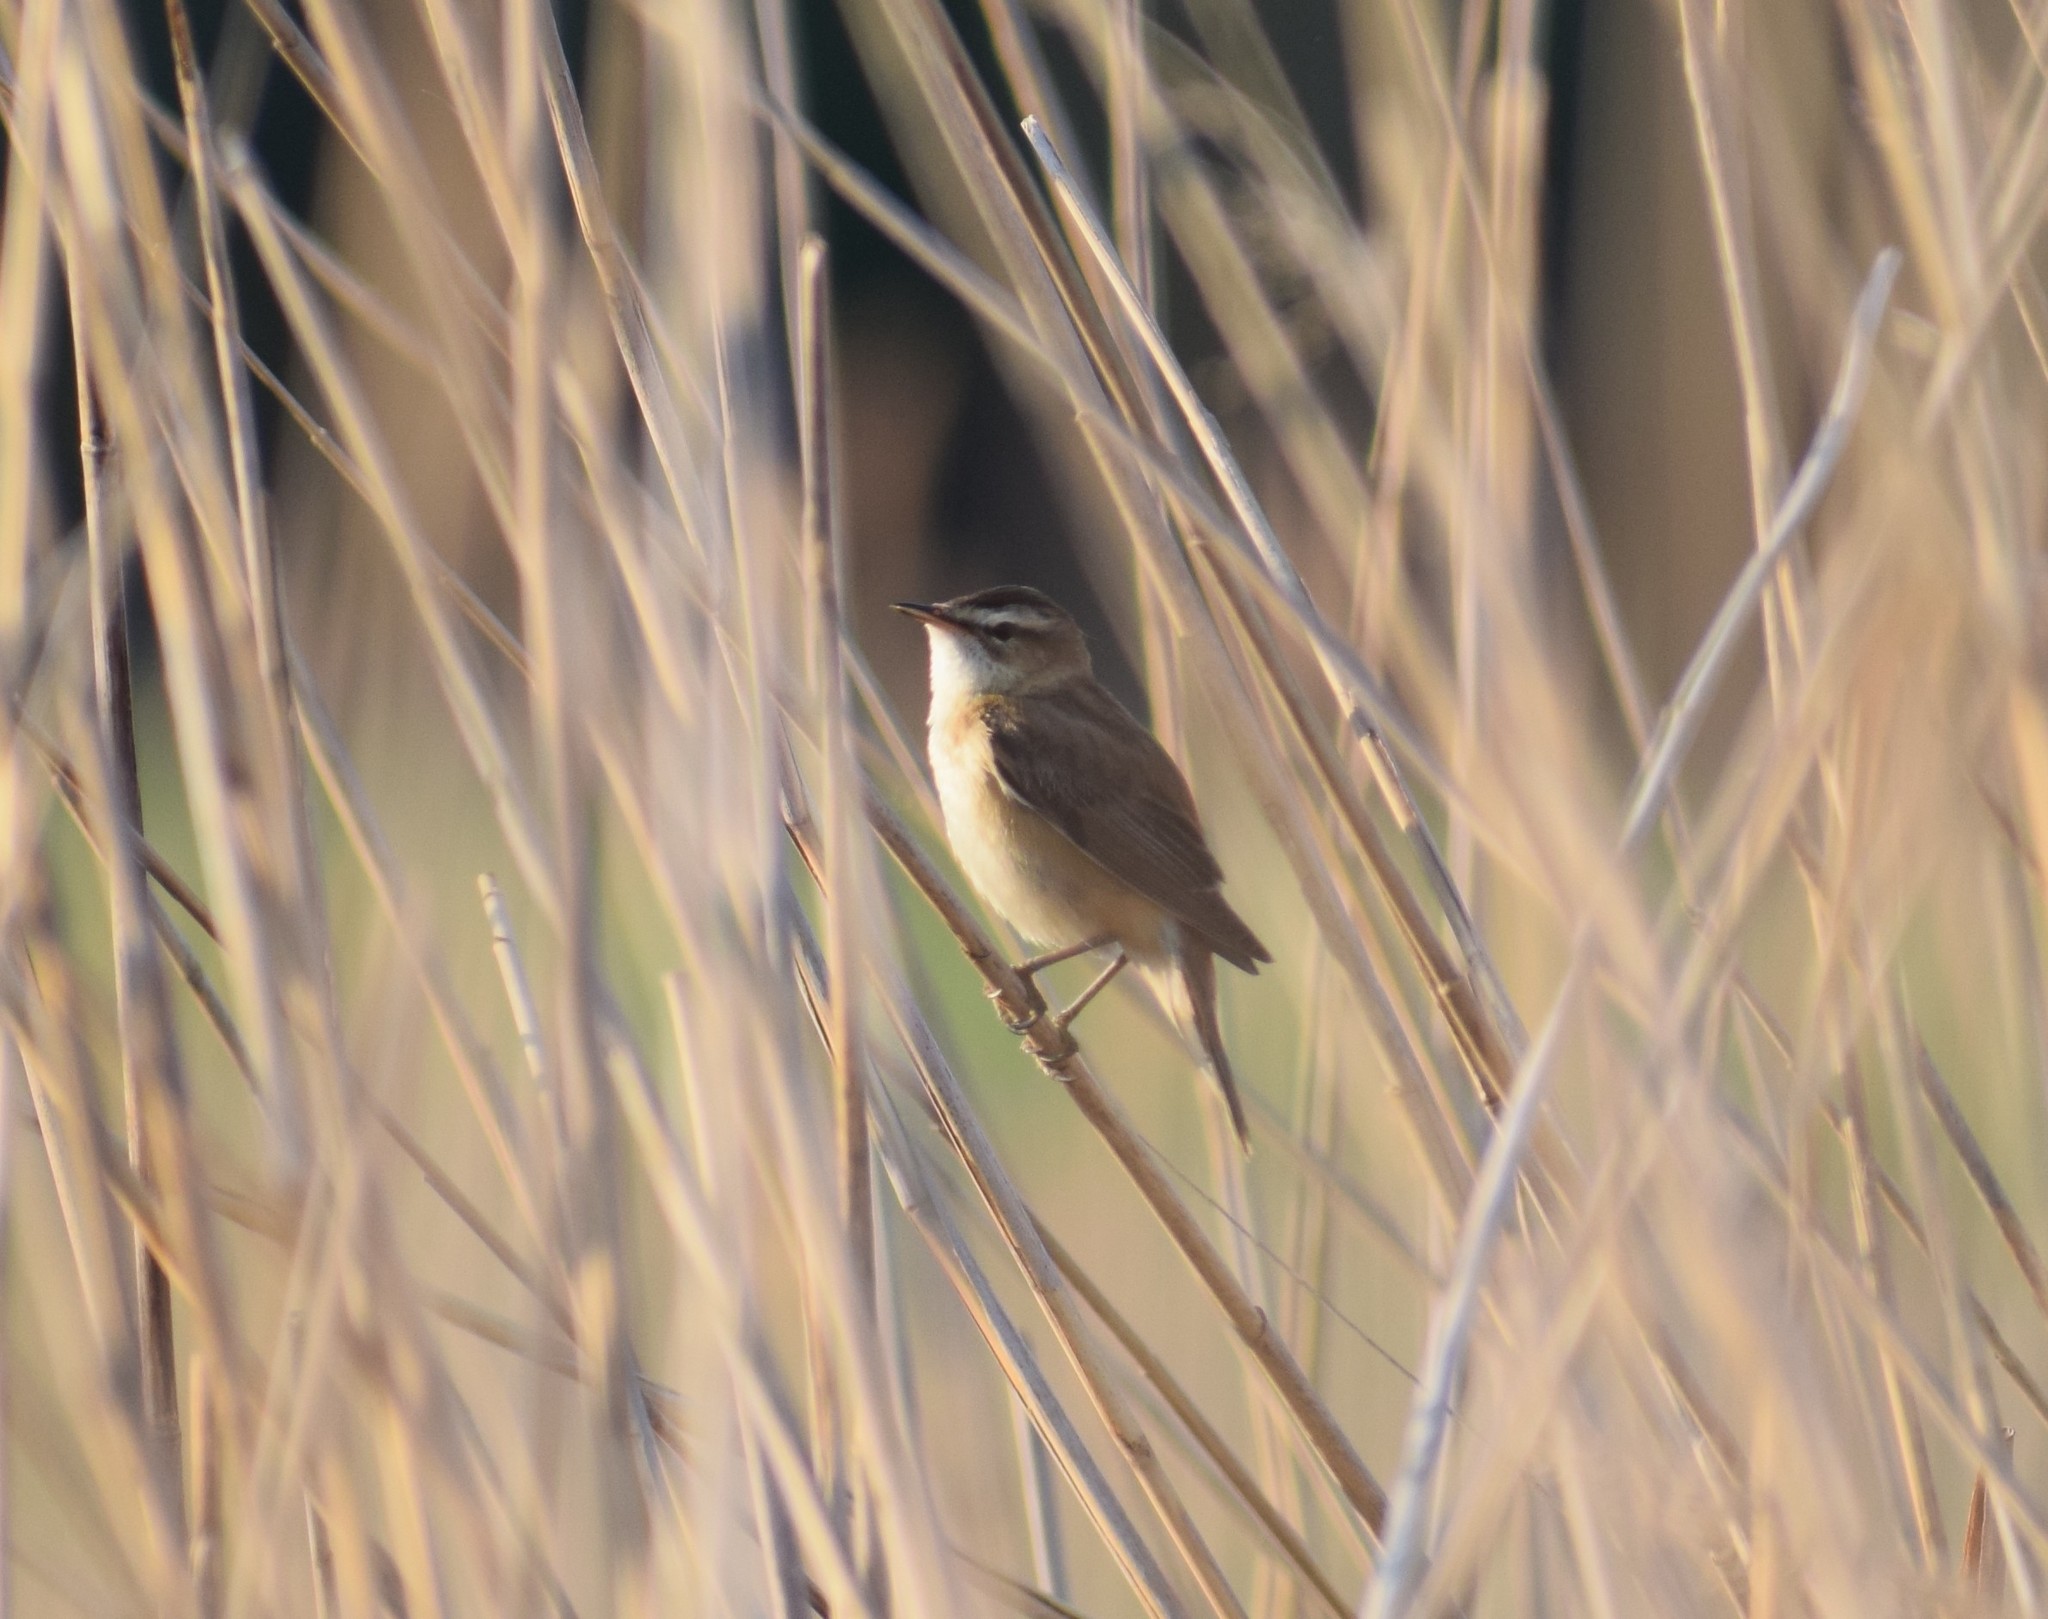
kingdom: Animalia
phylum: Chordata
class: Aves
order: Passeriformes
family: Acrocephalidae
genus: Acrocephalus
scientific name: Acrocephalus schoenobaenus
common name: Sedge warbler
